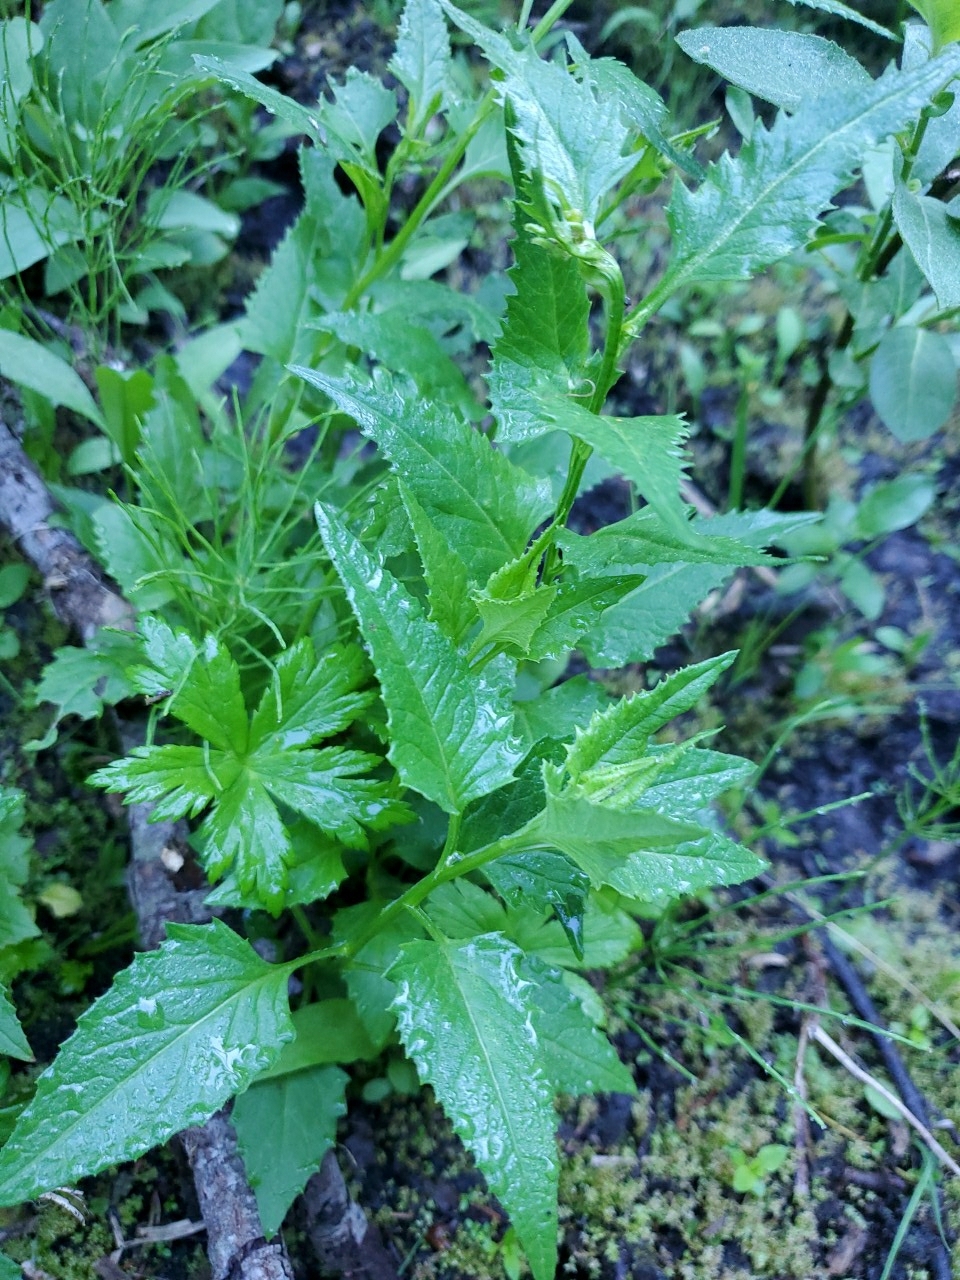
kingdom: Plantae
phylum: Tracheophyta
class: Magnoliopsida
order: Asterales
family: Asteraceae
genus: Senecio
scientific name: Senecio triangularis
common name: Arrowleaf butterweed
